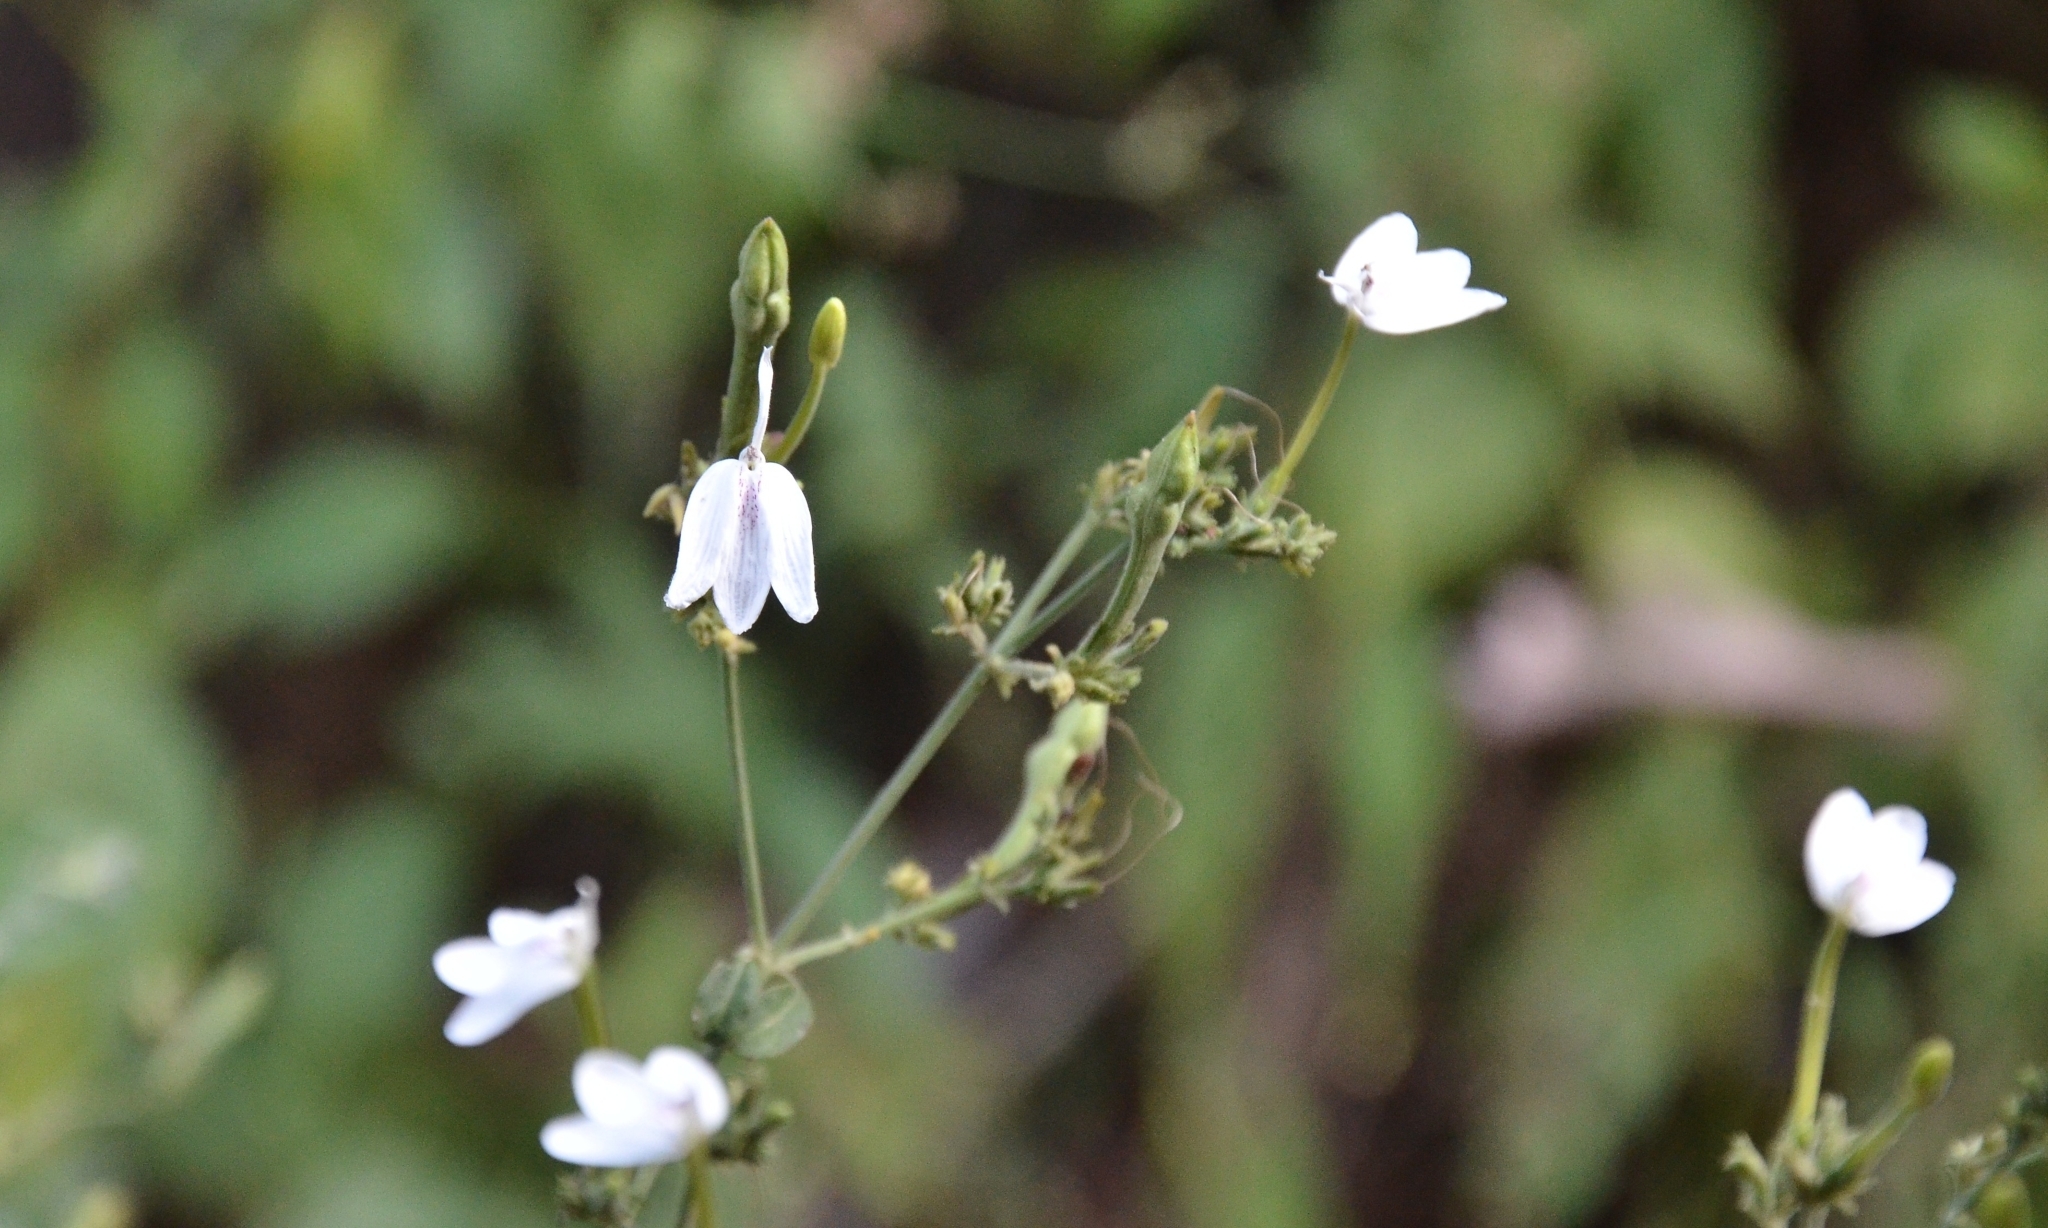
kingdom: Plantae
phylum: Tracheophyta
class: Magnoliopsida
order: Lamiales
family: Acanthaceae
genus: Rhinacanthus
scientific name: Rhinacanthus nasutus
